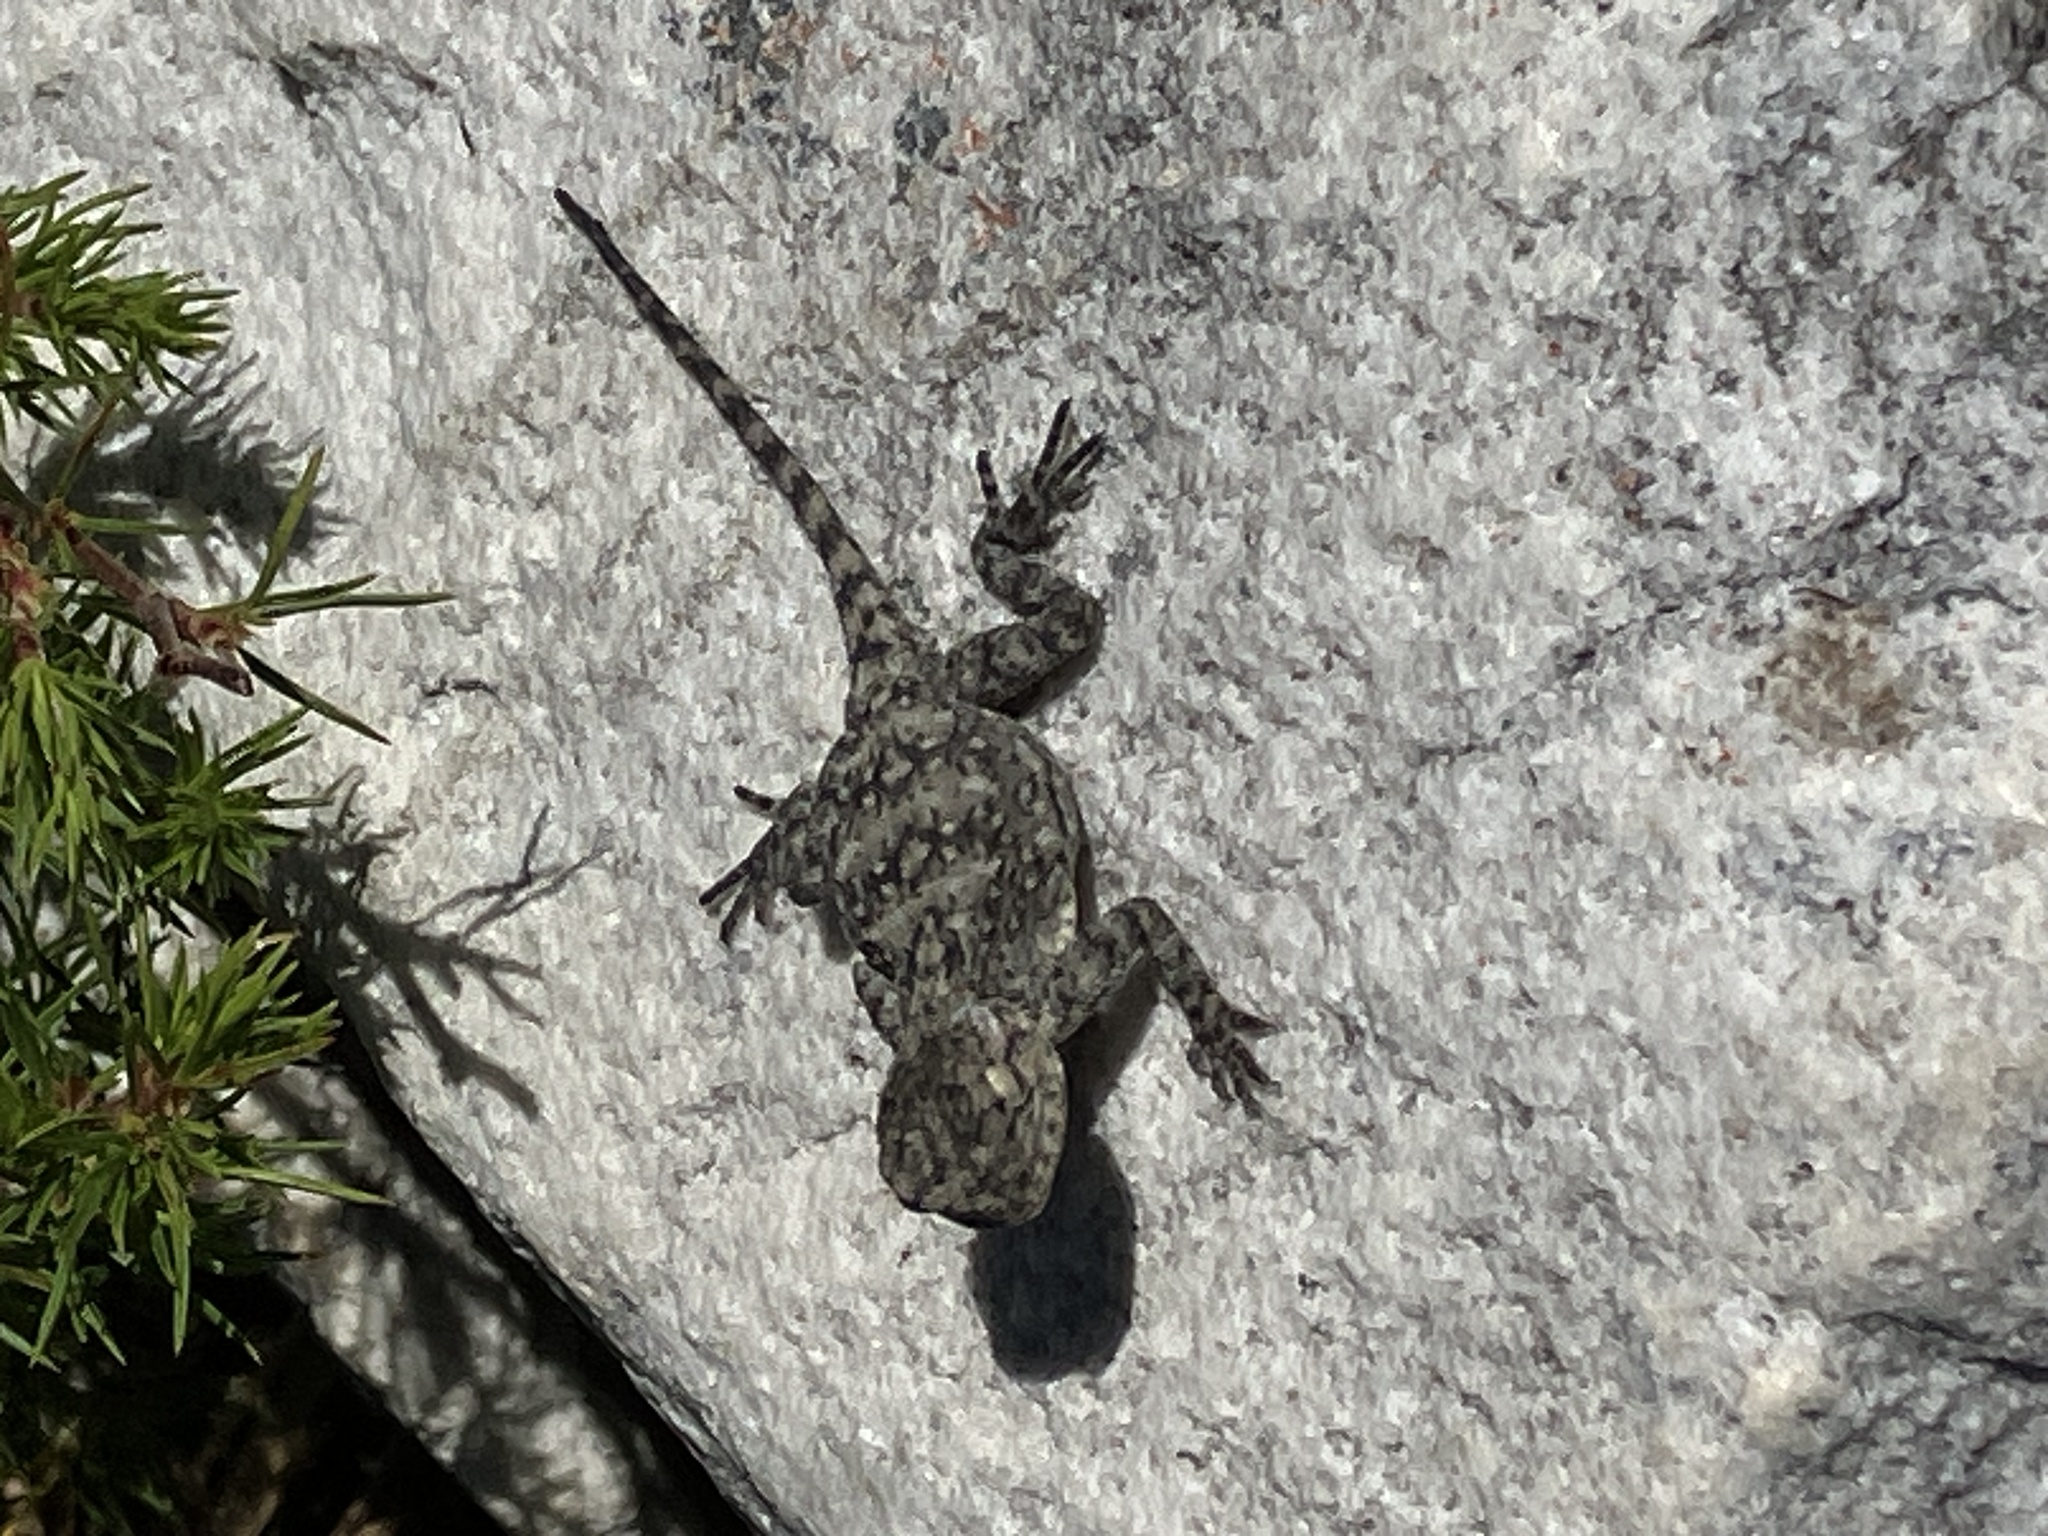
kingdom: Animalia
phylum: Chordata
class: Squamata
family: Agamidae
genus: Agama
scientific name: Agama atra
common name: Southern african rock agama
